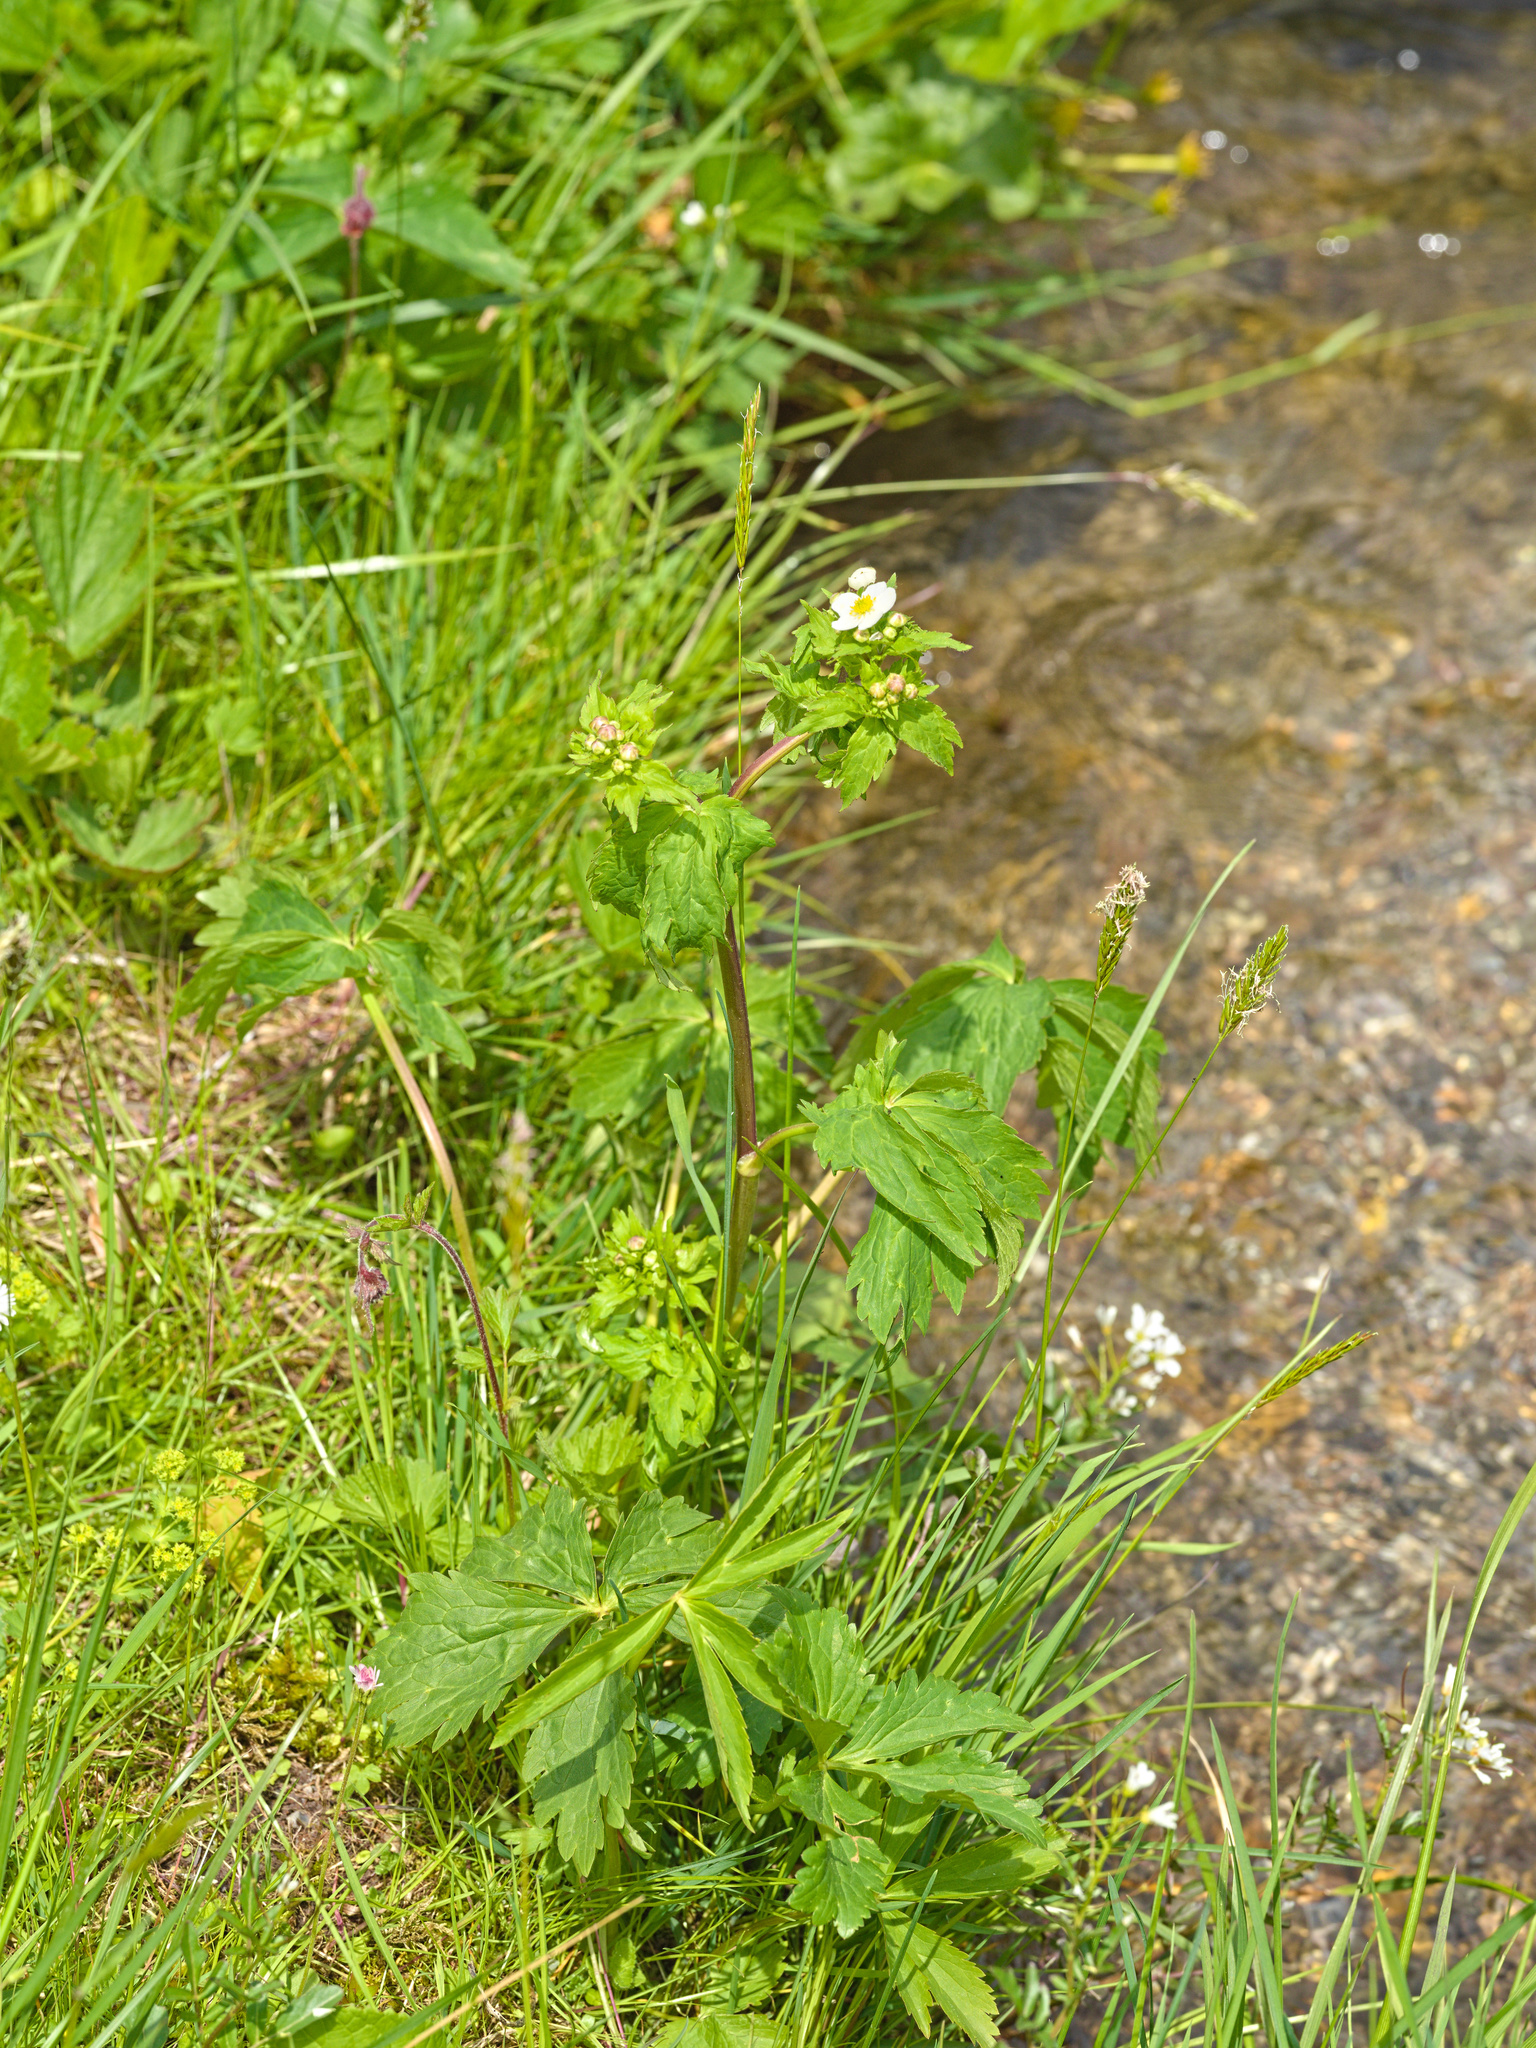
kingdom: Plantae
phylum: Tracheophyta
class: Magnoliopsida
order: Ranunculales
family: Ranunculaceae
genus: Ranunculus
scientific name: Ranunculus aconitifolius
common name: Aconite-leaved buttercup
